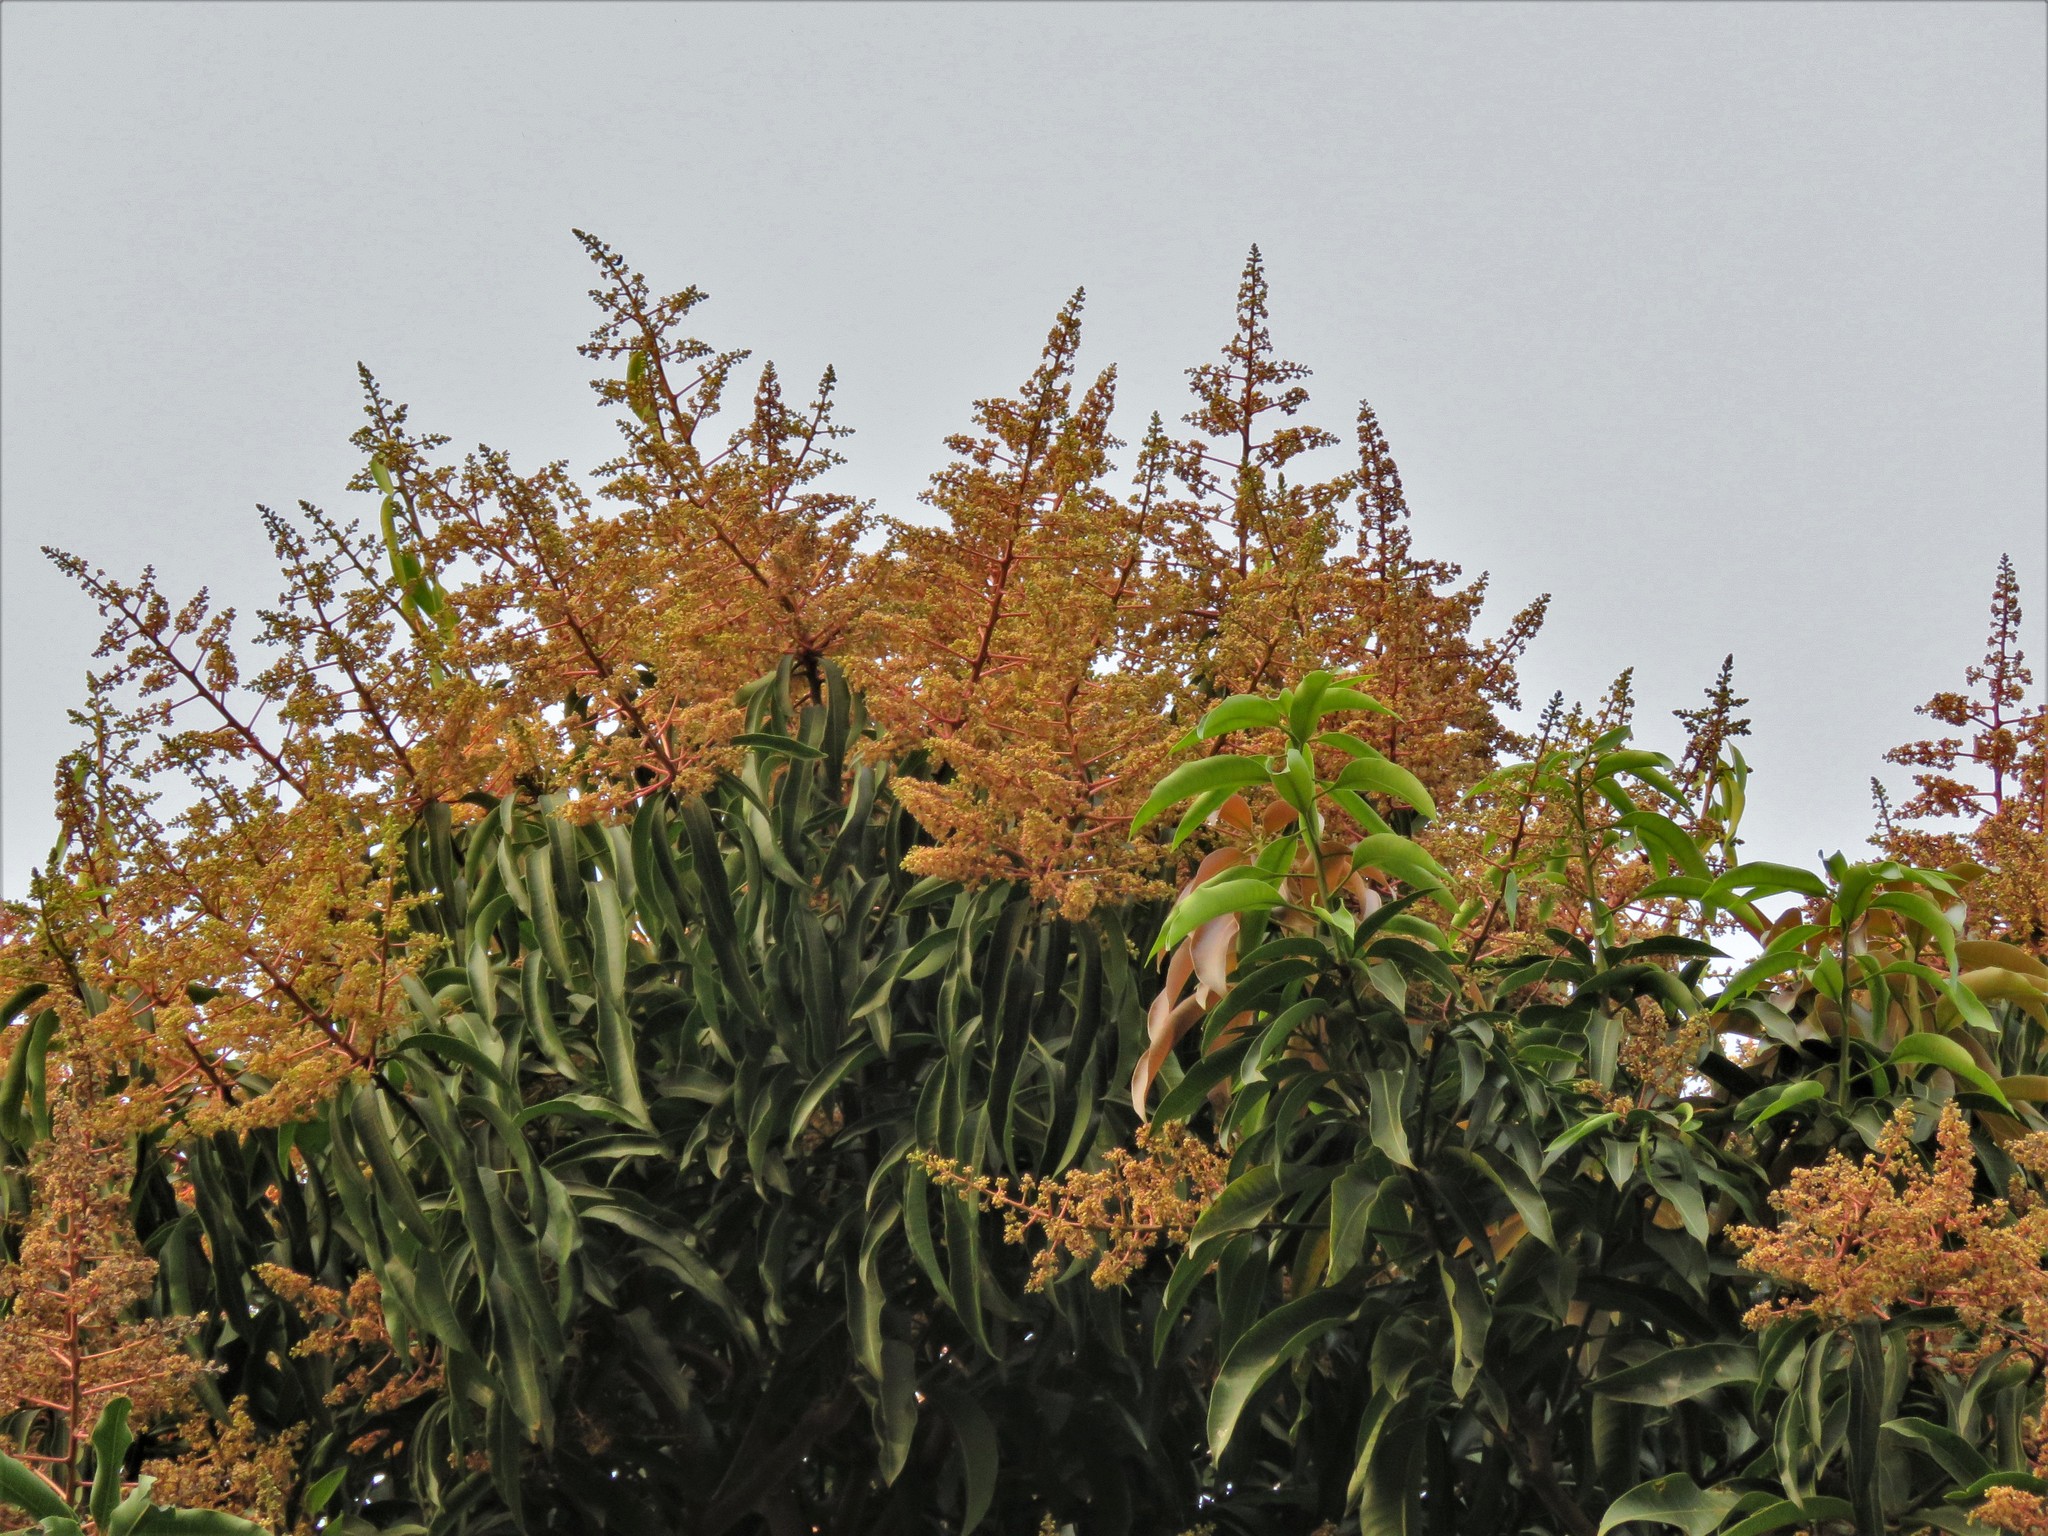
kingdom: Plantae
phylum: Tracheophyta
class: Magnoliopsida
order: Sapindales
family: Anacardiaceae
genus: Mangifera
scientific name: Mangifera indica
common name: Mango
